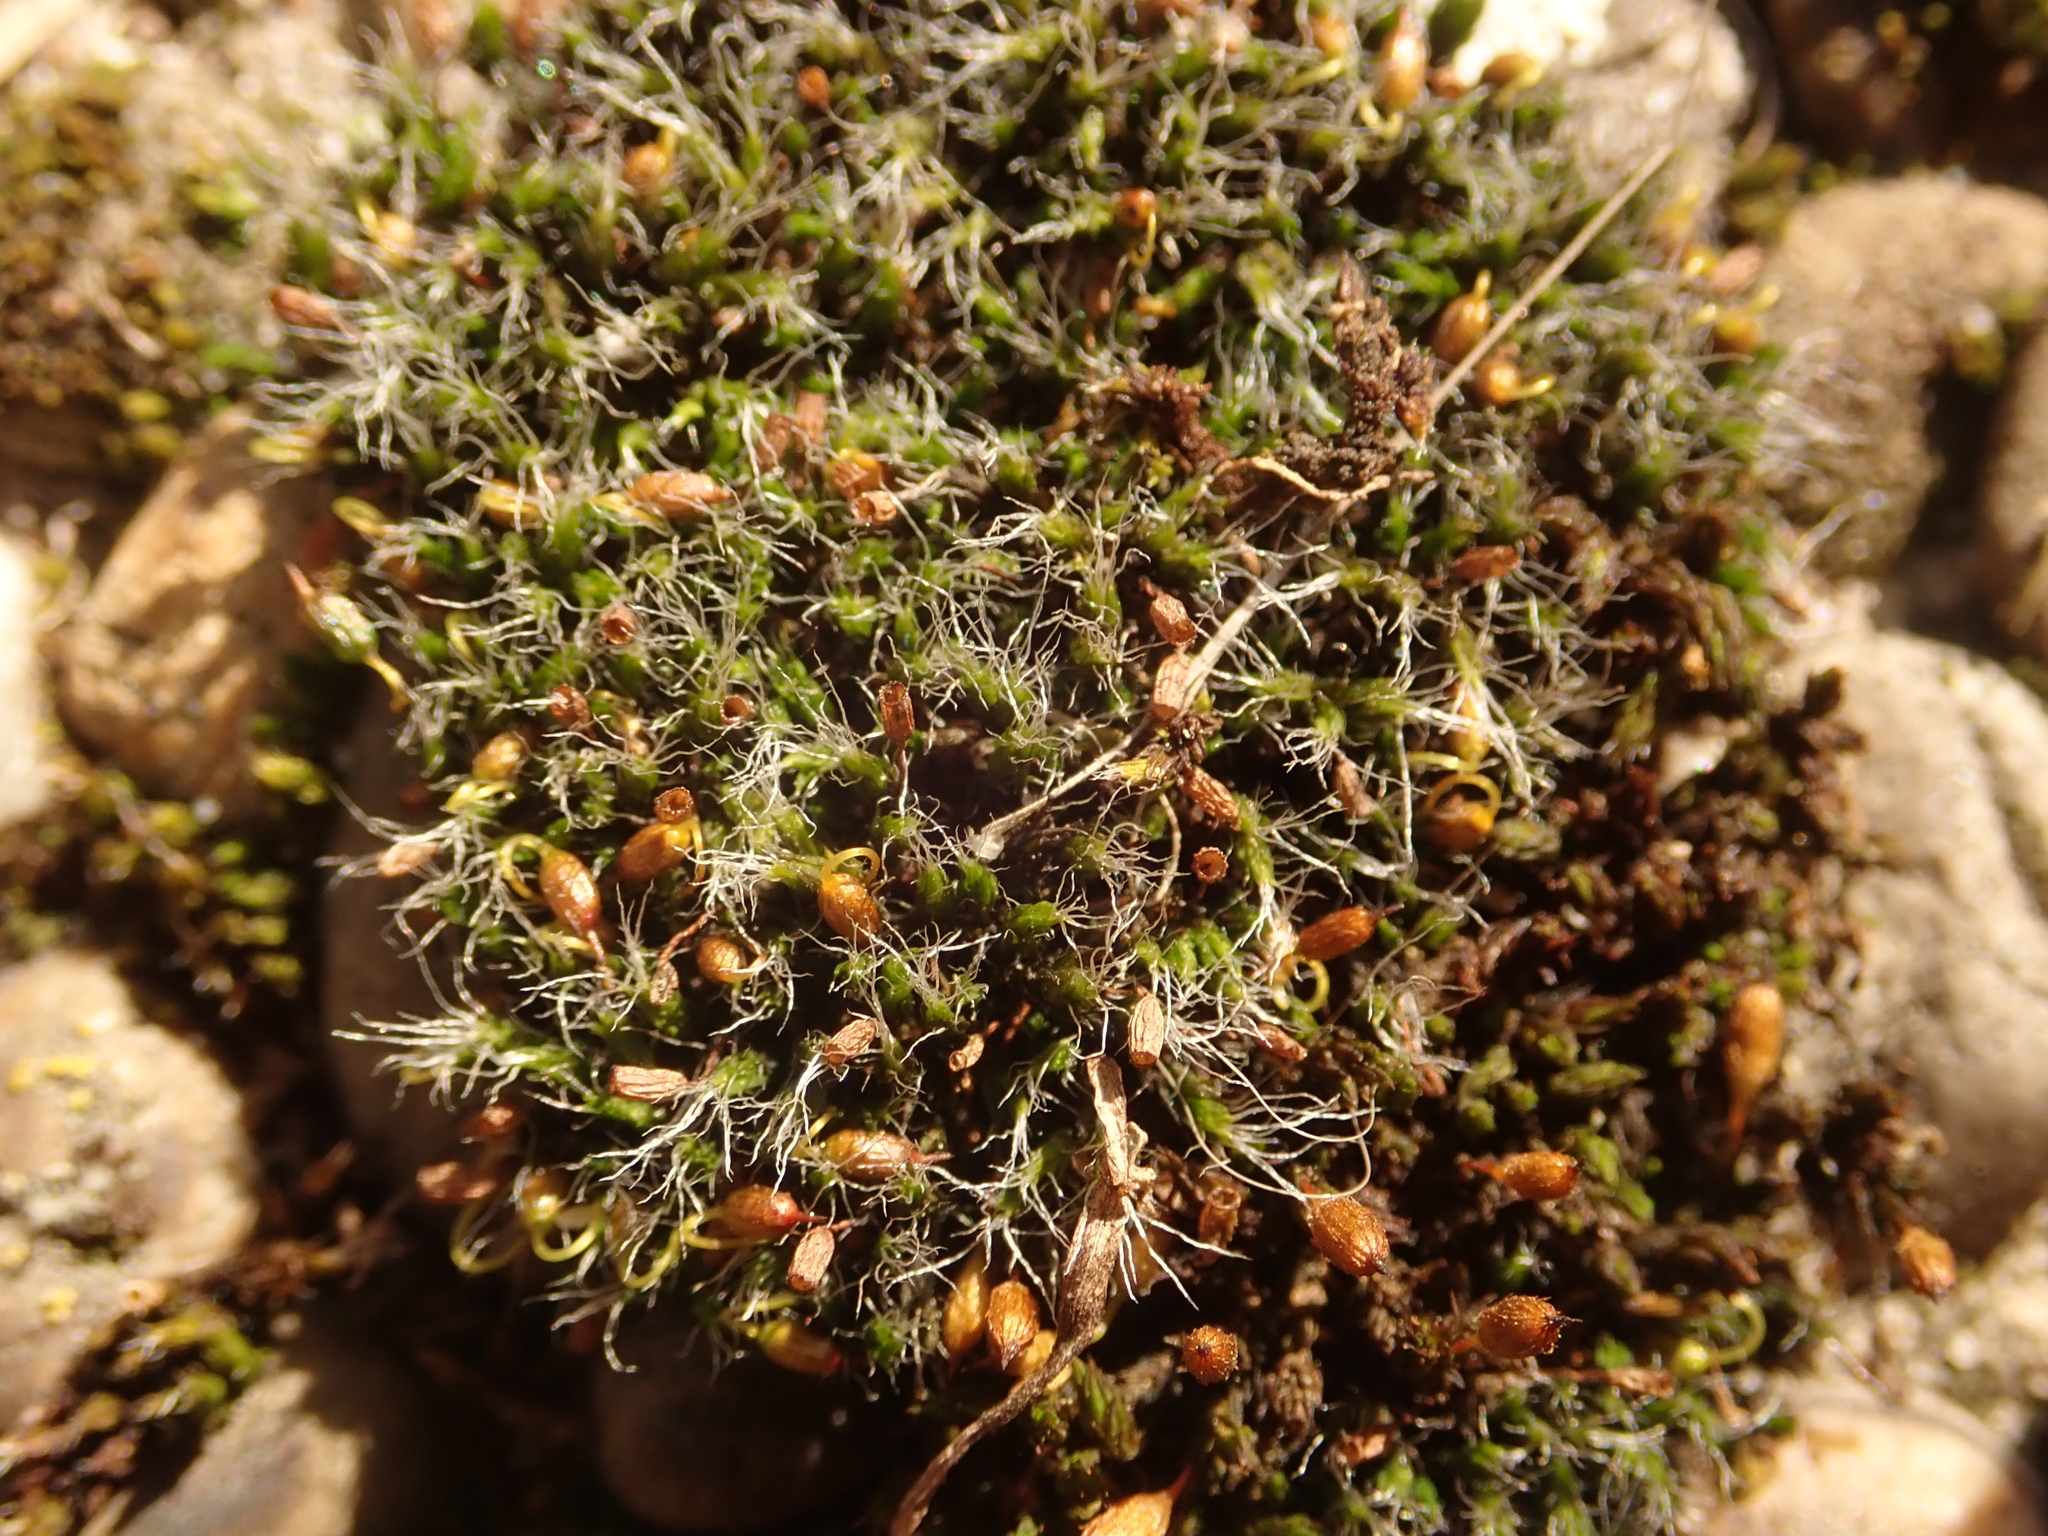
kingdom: Plantae
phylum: Bryophyta
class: Bryopsida
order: Grimmiales
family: Grimmiaceae
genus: Grimmia
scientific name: Grimmia pulvinata
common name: Grey-cushioned grimmia
